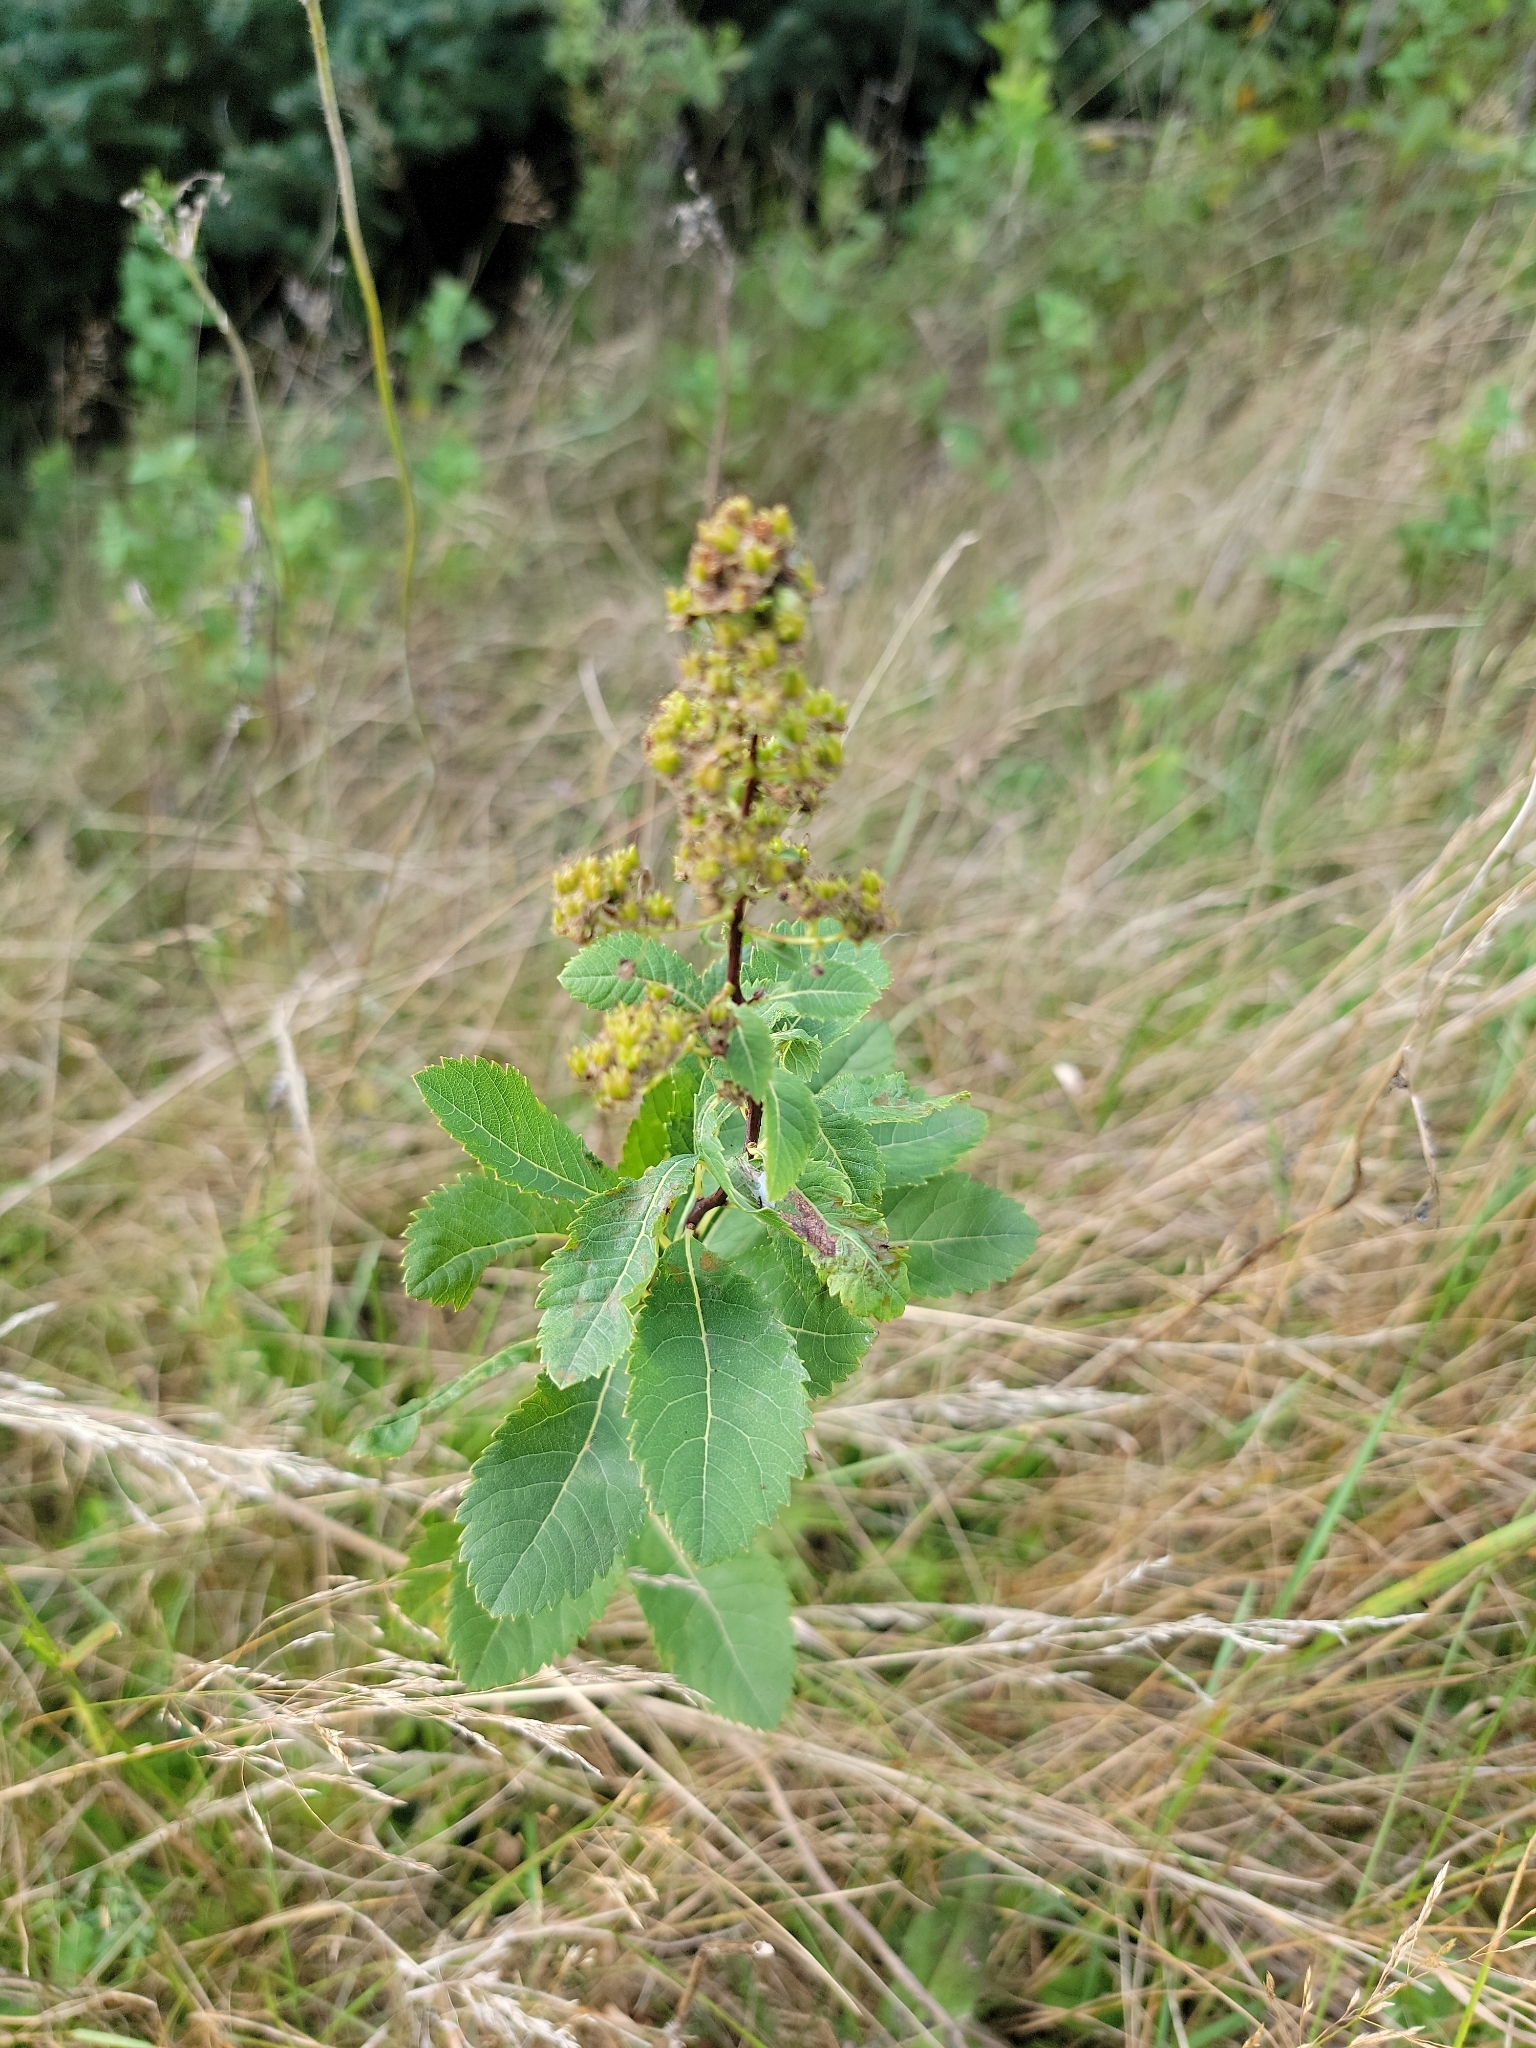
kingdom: Plantae
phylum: Tracheophyta
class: Magnoliopsida
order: Rosales
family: Rosaceae
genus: Spiraea
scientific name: Spiraea alba
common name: Pale bridewort
